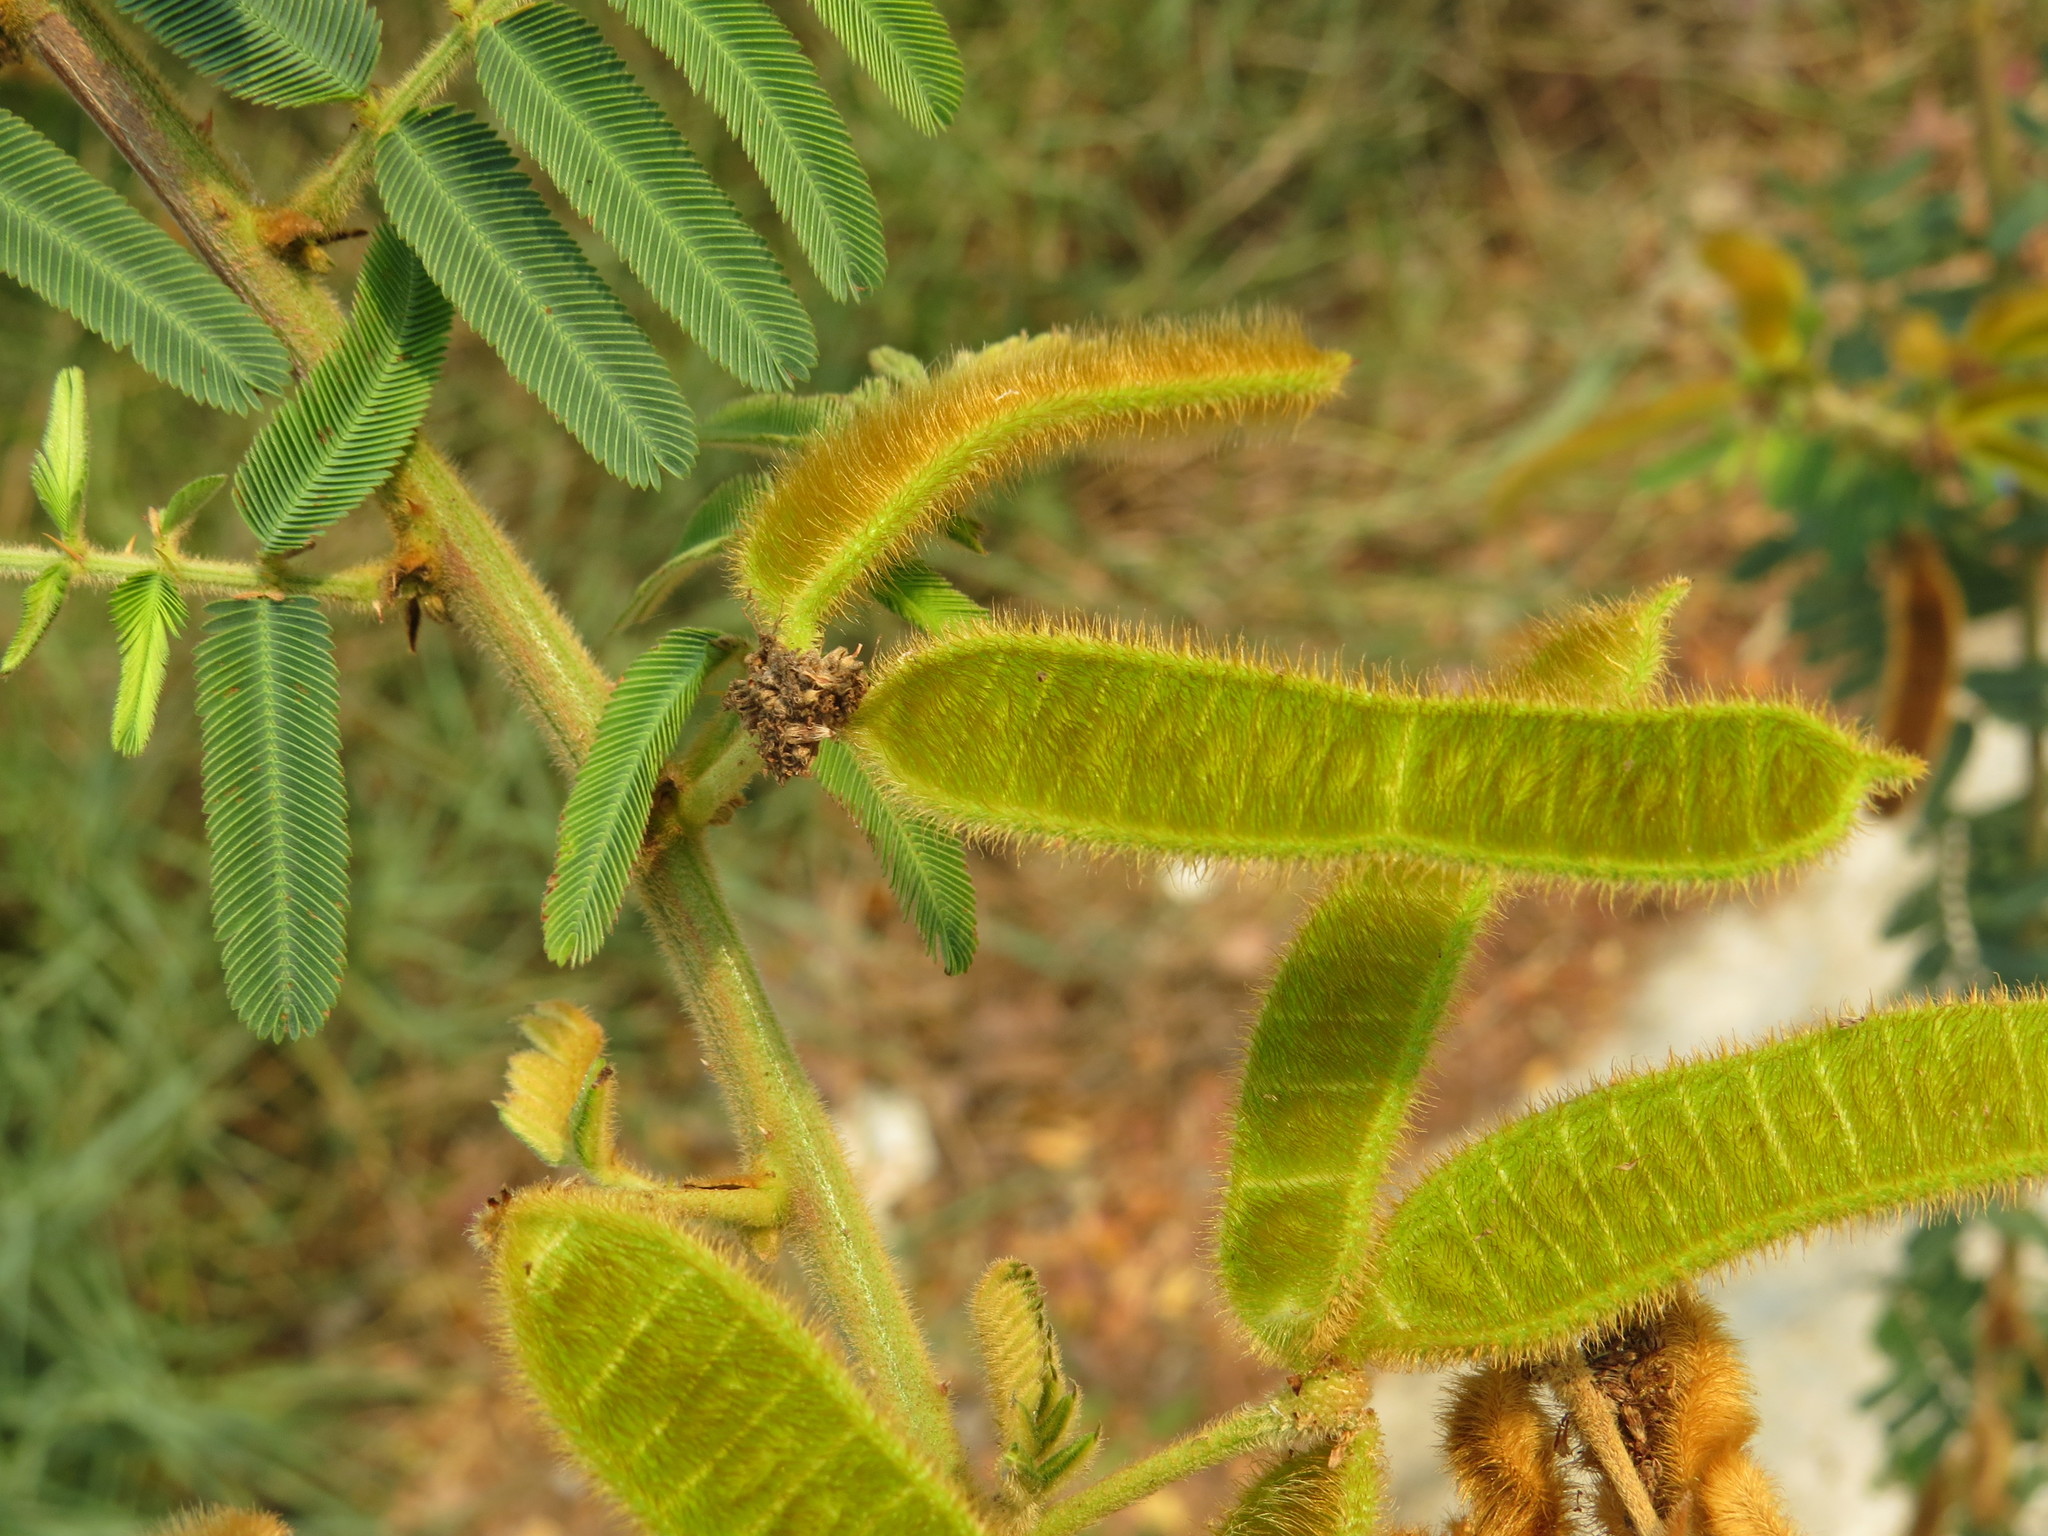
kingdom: Plantae
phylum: Tracheophyta
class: Magnoliopsida
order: Fabales
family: Fabaceae
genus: Mimosa
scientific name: Mimosa pigra
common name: Black mimosa
